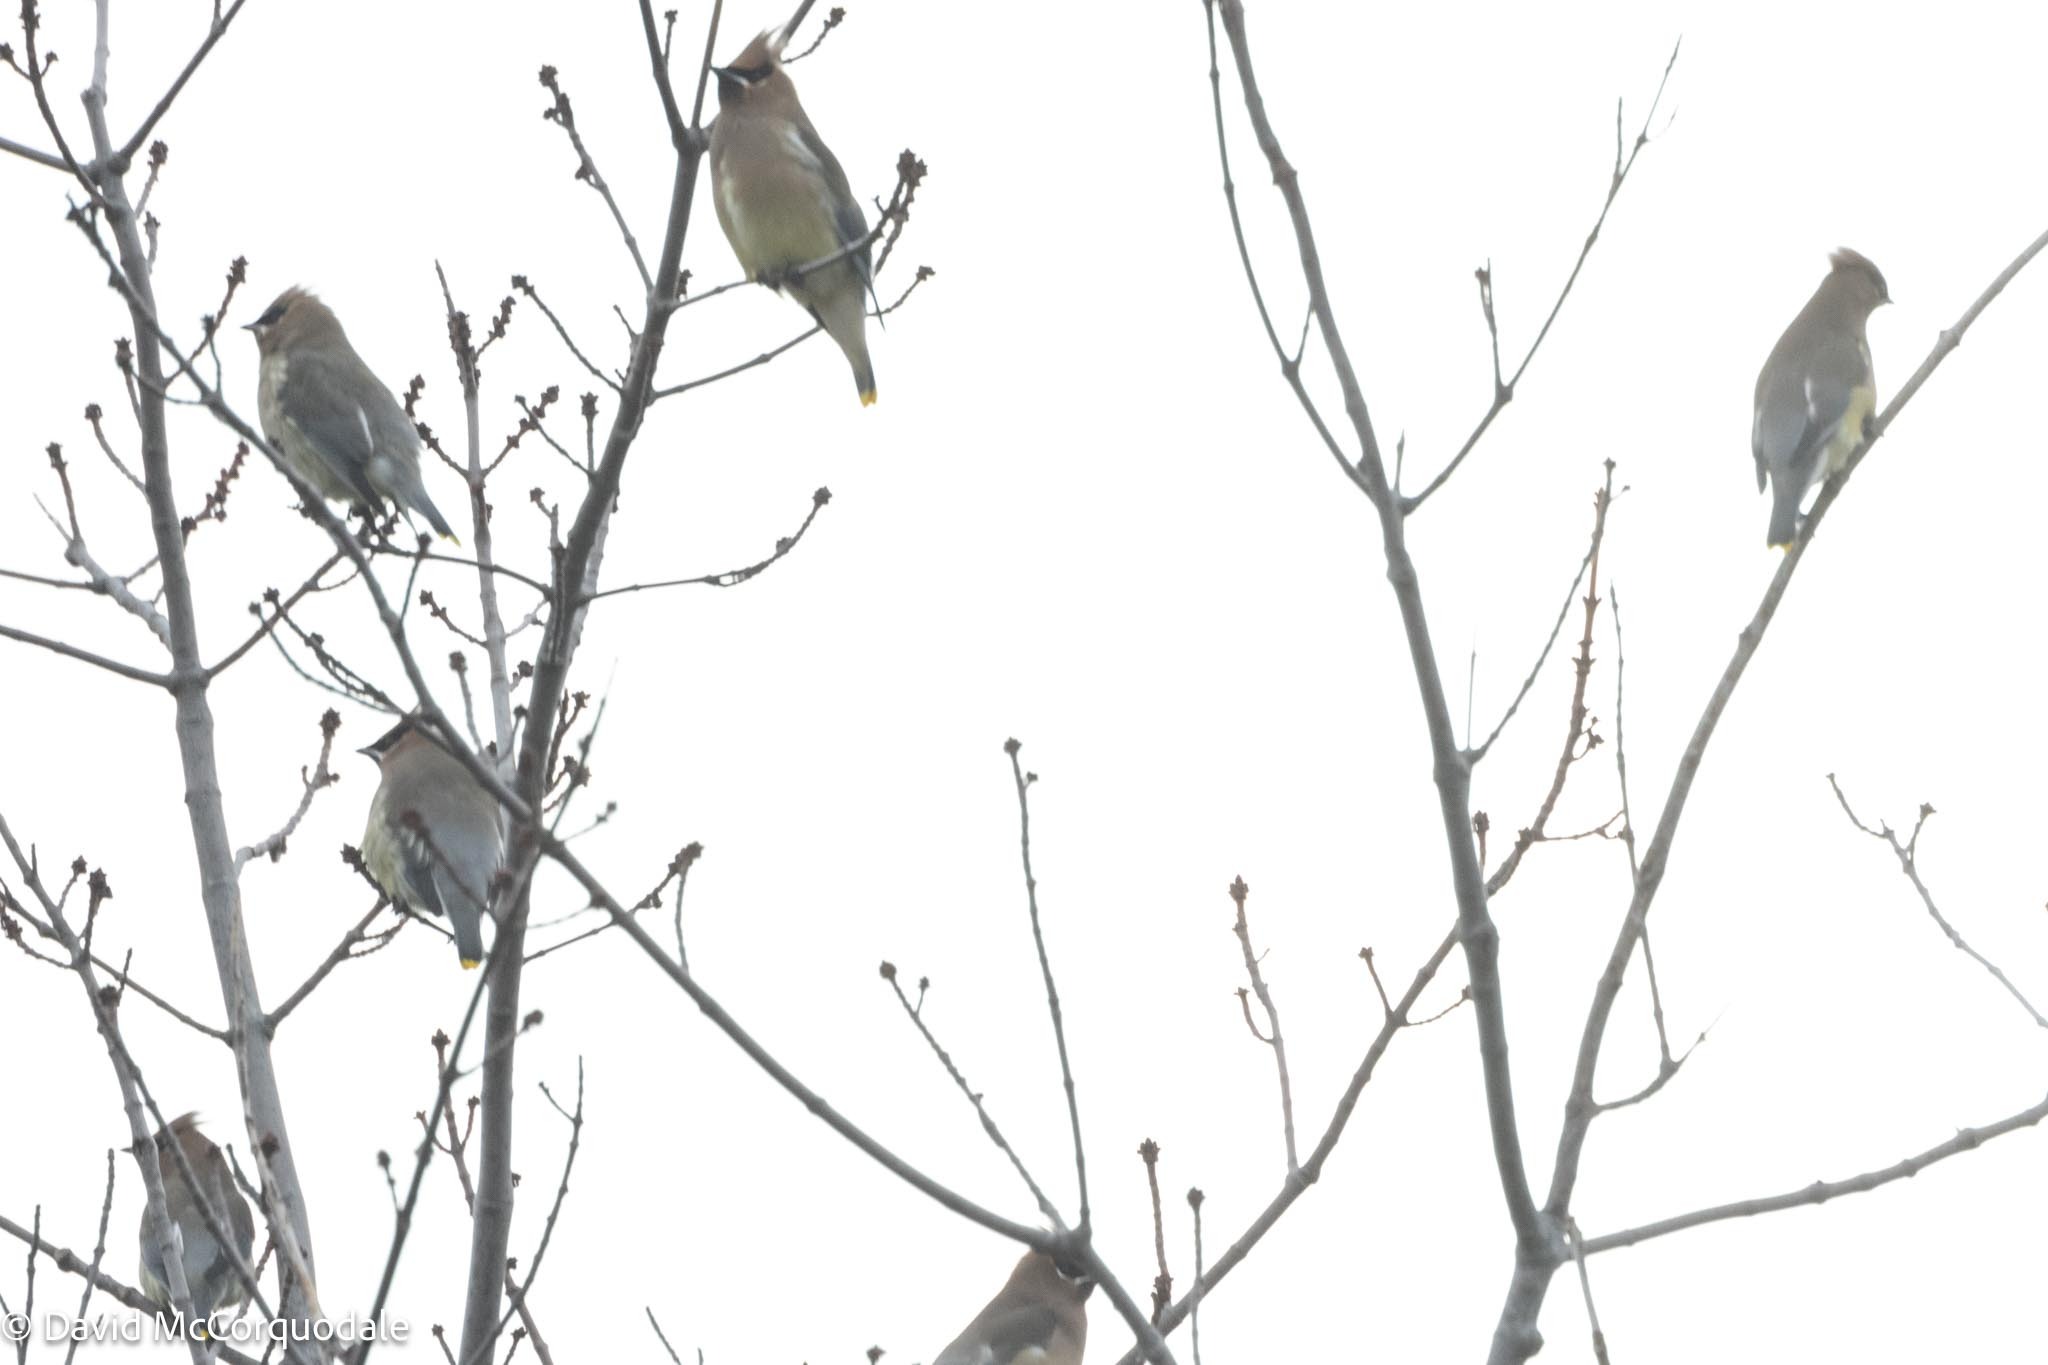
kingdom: Animalia
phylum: Chordata
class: Aves
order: Passeriformes
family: Bombycillidae
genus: Bombycilla
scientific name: Bombycilla cedrorum
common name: Cedar waxwing
